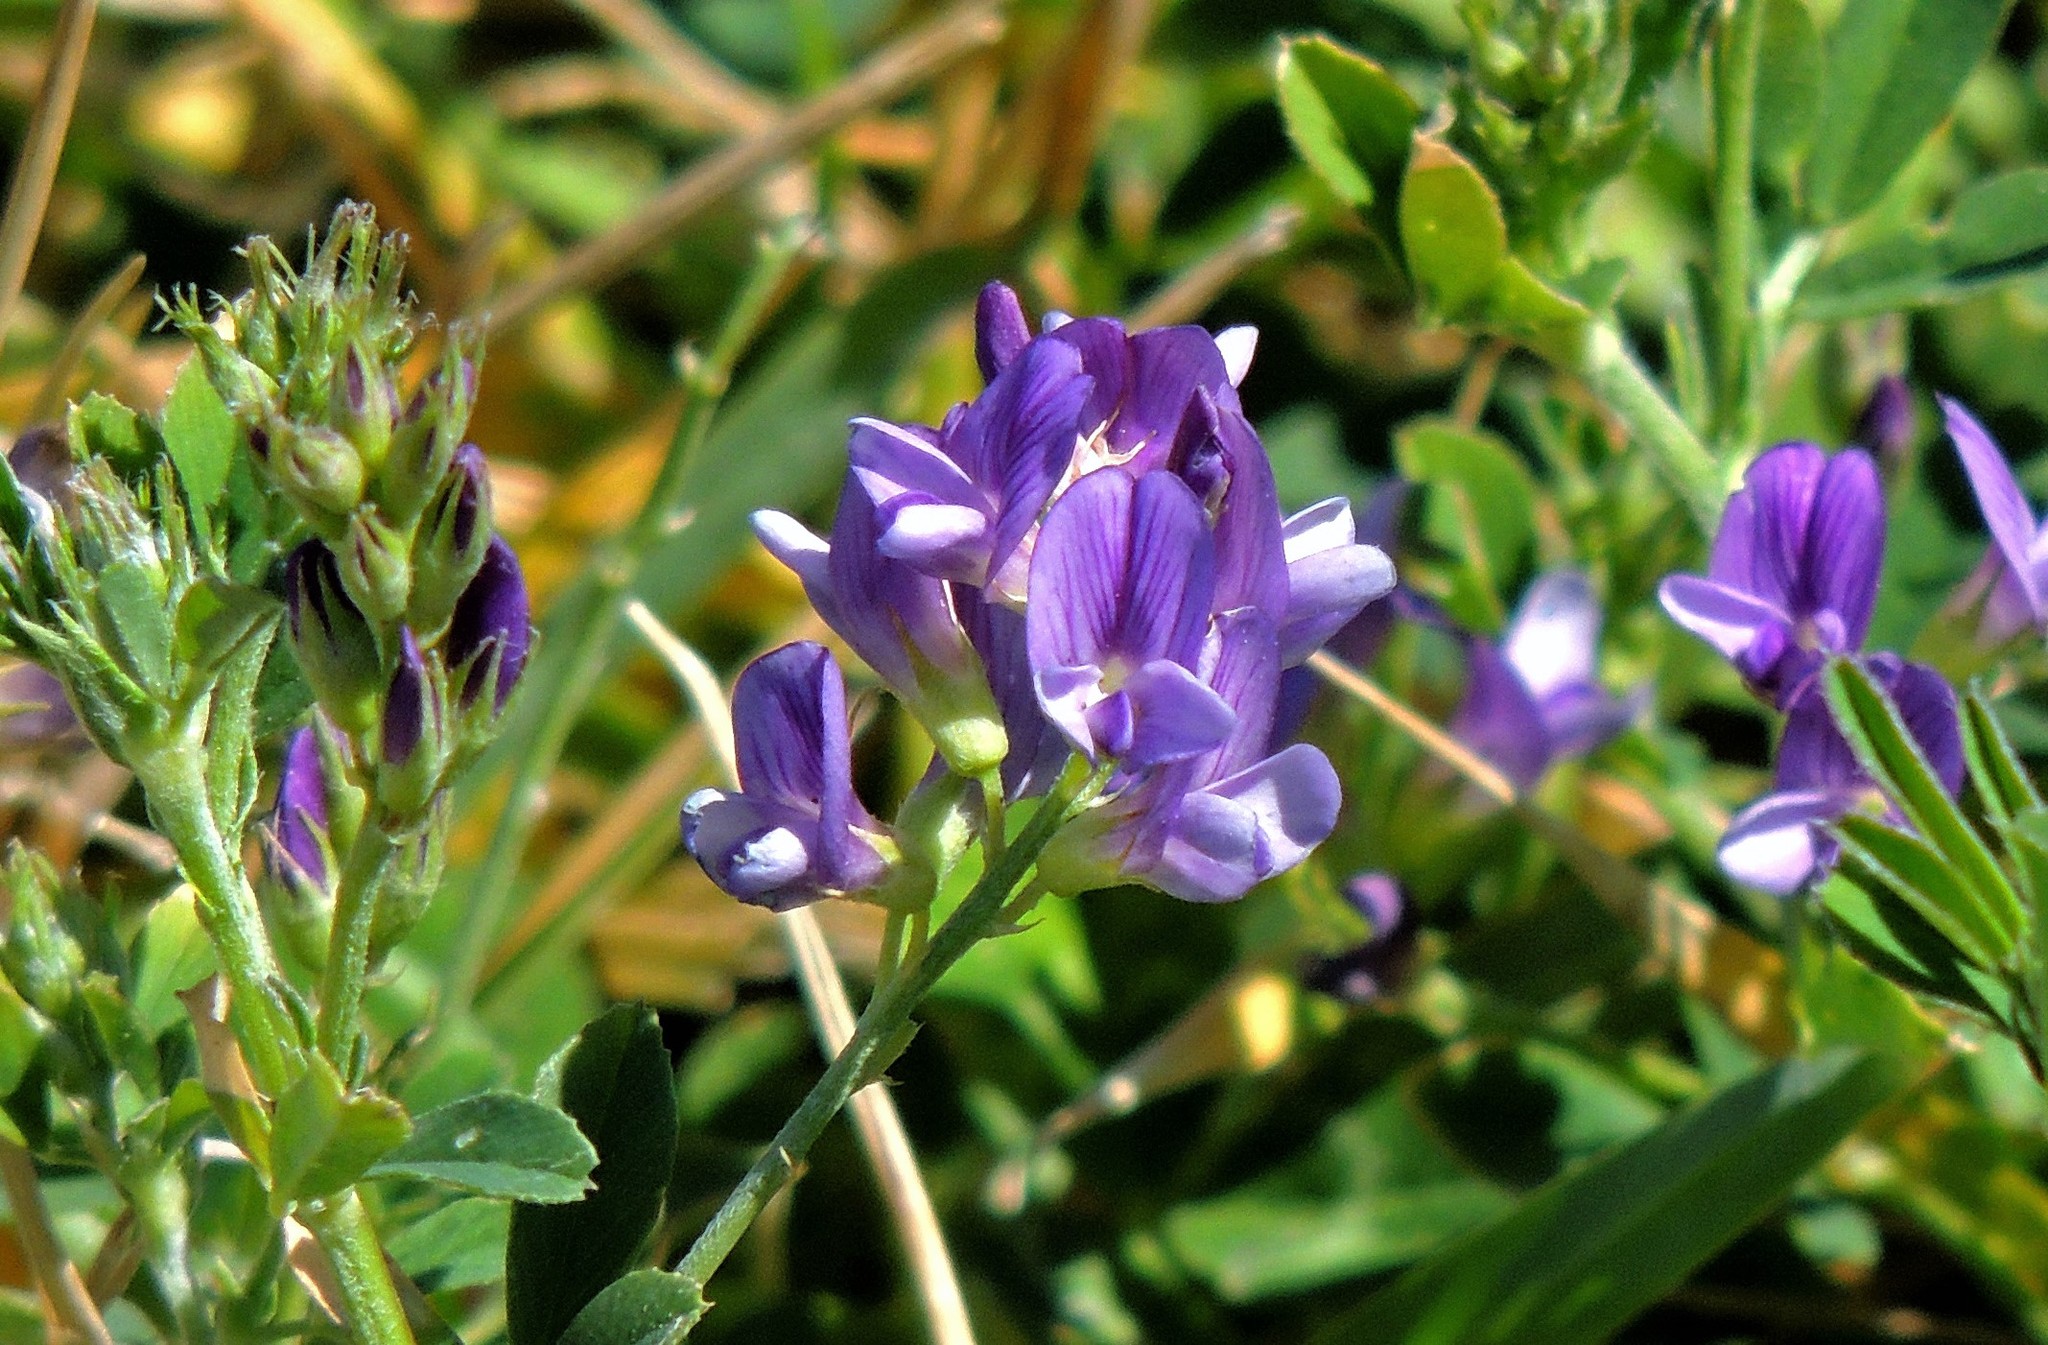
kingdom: Plantae
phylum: Tracheophyta
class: Magnoliopsida
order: Fabales
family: Fabaceae
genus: Medicago
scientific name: Medicago sativa
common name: Alfalfa
